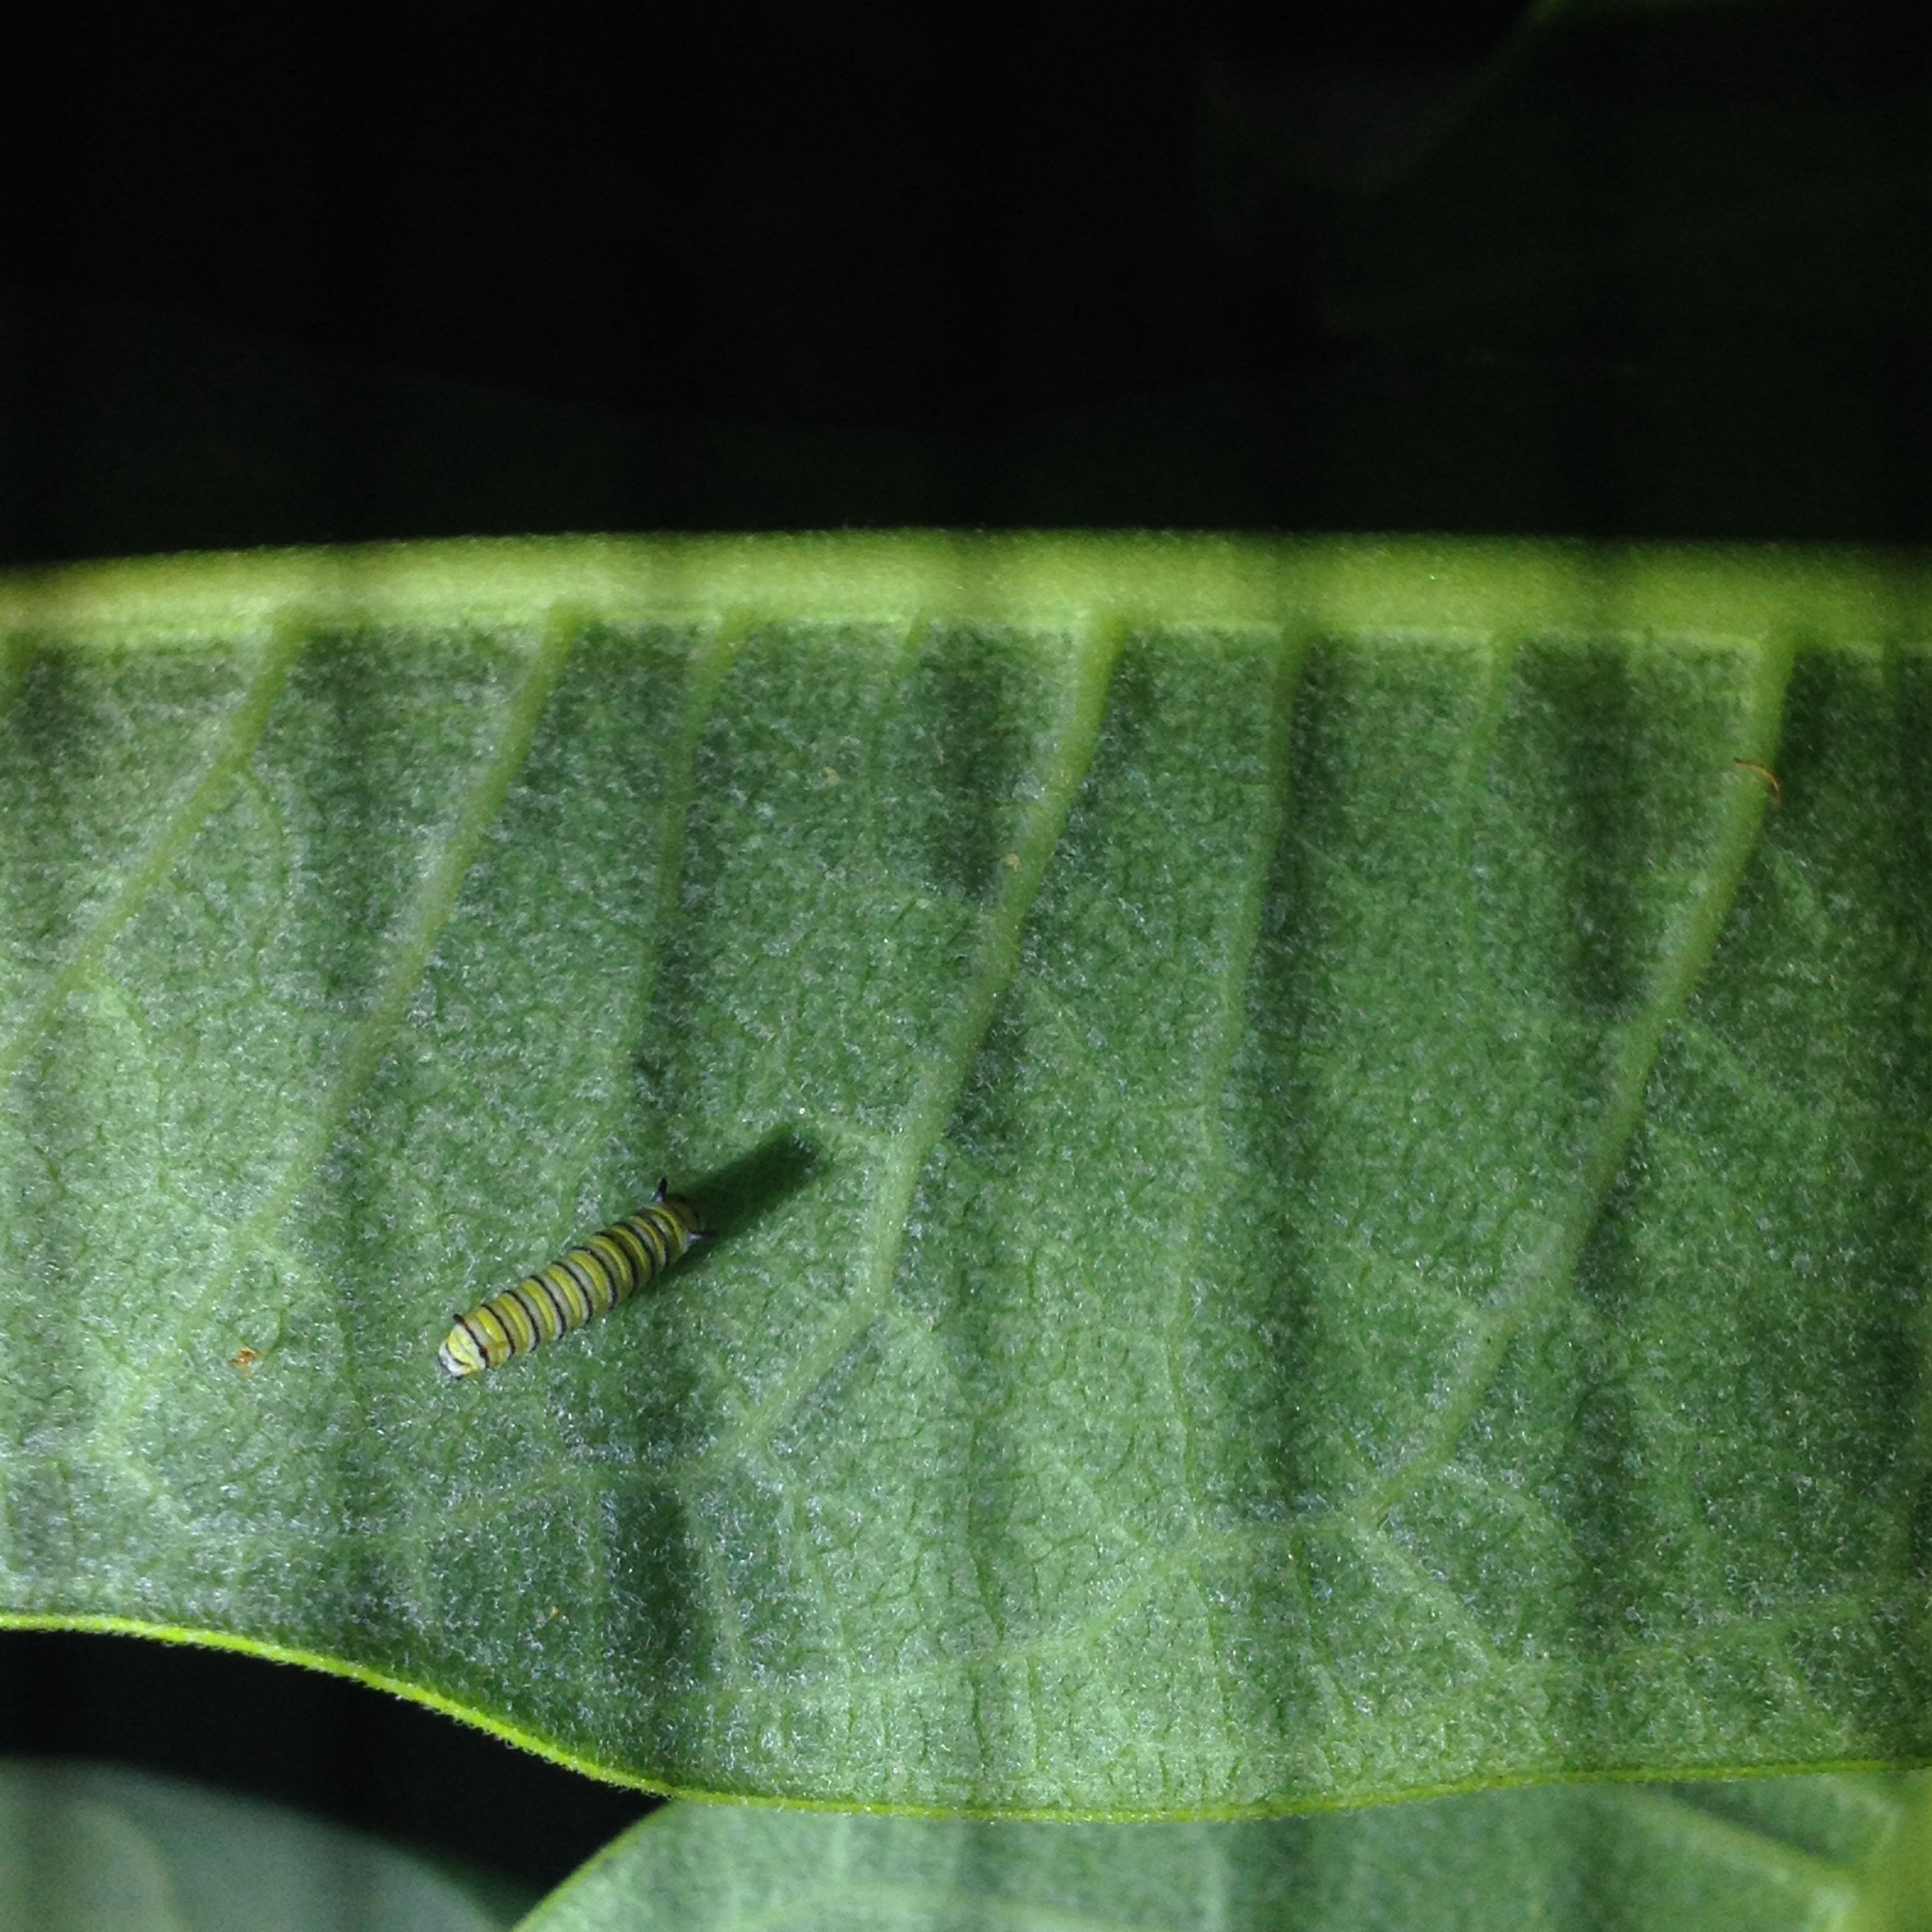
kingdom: Animalia
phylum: Arthropoda
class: Insecta
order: Lepidoptera
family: Nymphalidae
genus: Danaus
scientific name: Danaus plexippus
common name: Monarch
